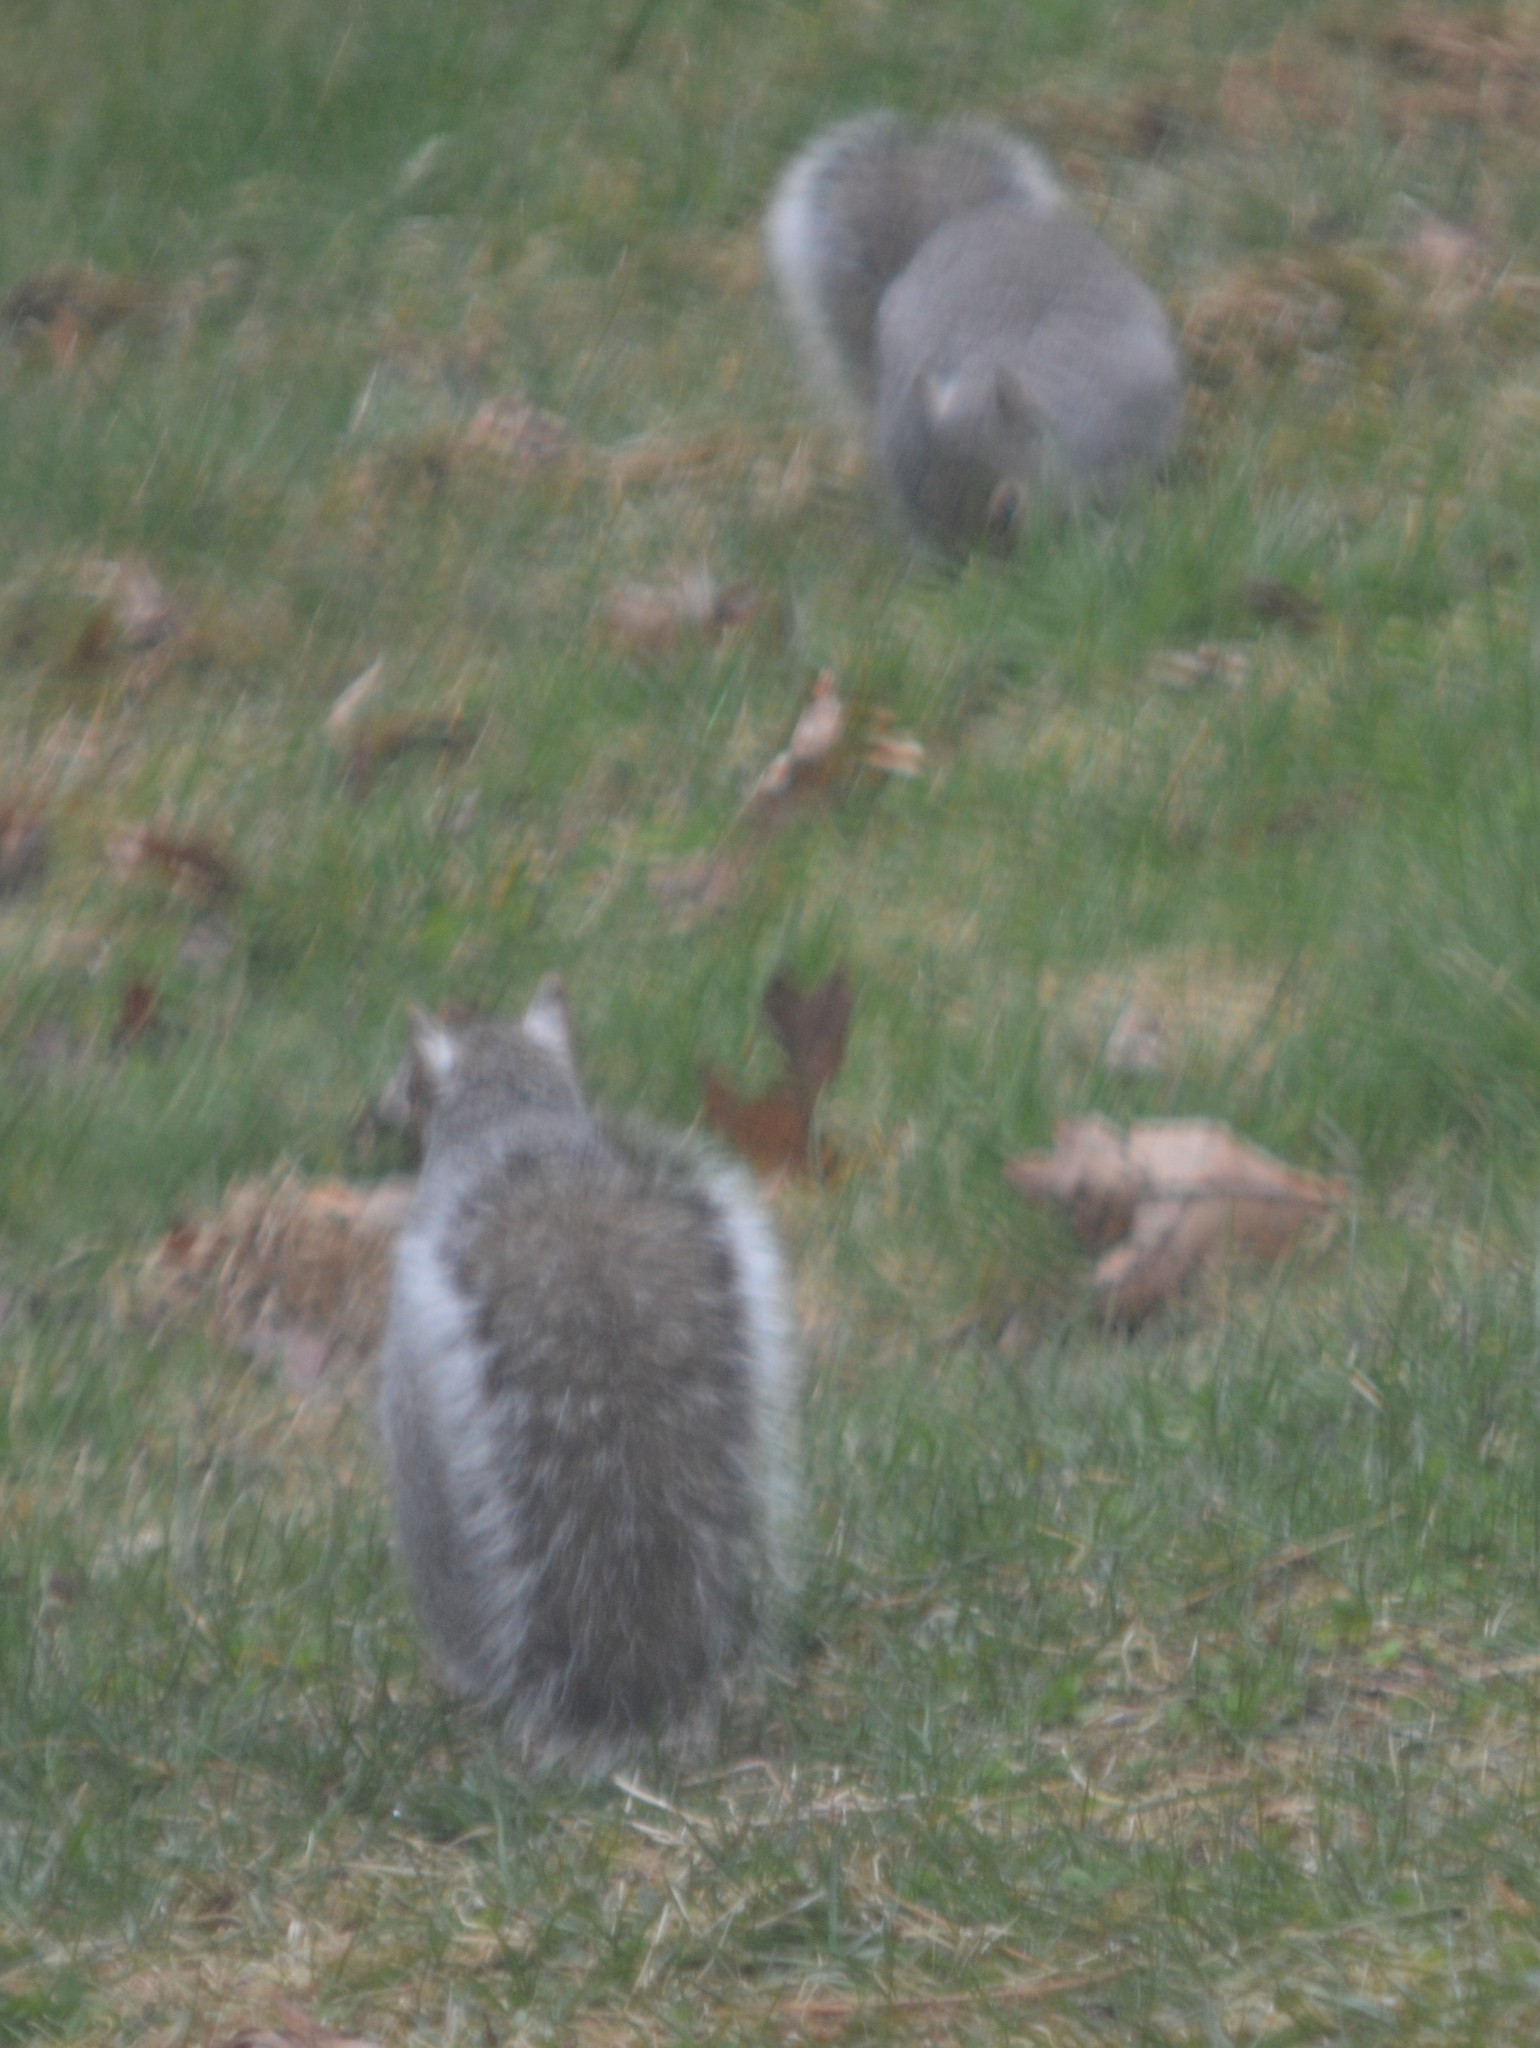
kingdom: Animalia
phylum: Chordata
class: Mammalia
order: Rodentia
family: Sciuridae
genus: Sciurus
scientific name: Sciurus carolinensis
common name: Eastern gray squirrel
